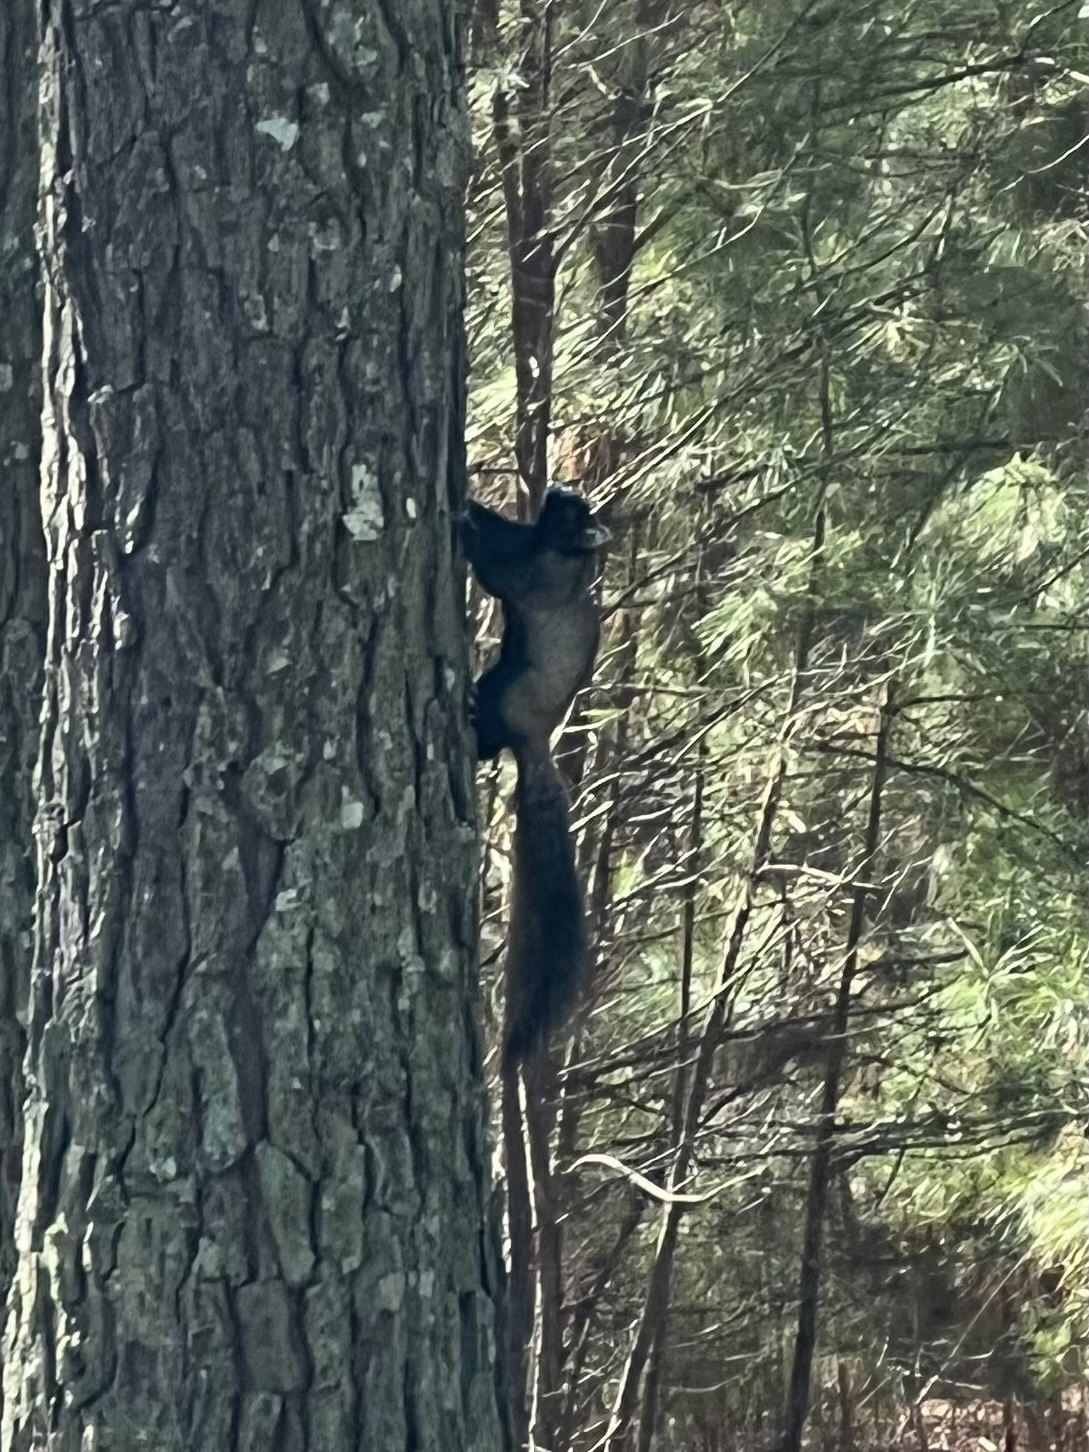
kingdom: Animalia
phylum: Chordata
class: Mammalia
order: Rodentia
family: Sciuridae
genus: Sciurus
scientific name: Sciurus niger
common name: Fox squirrel
